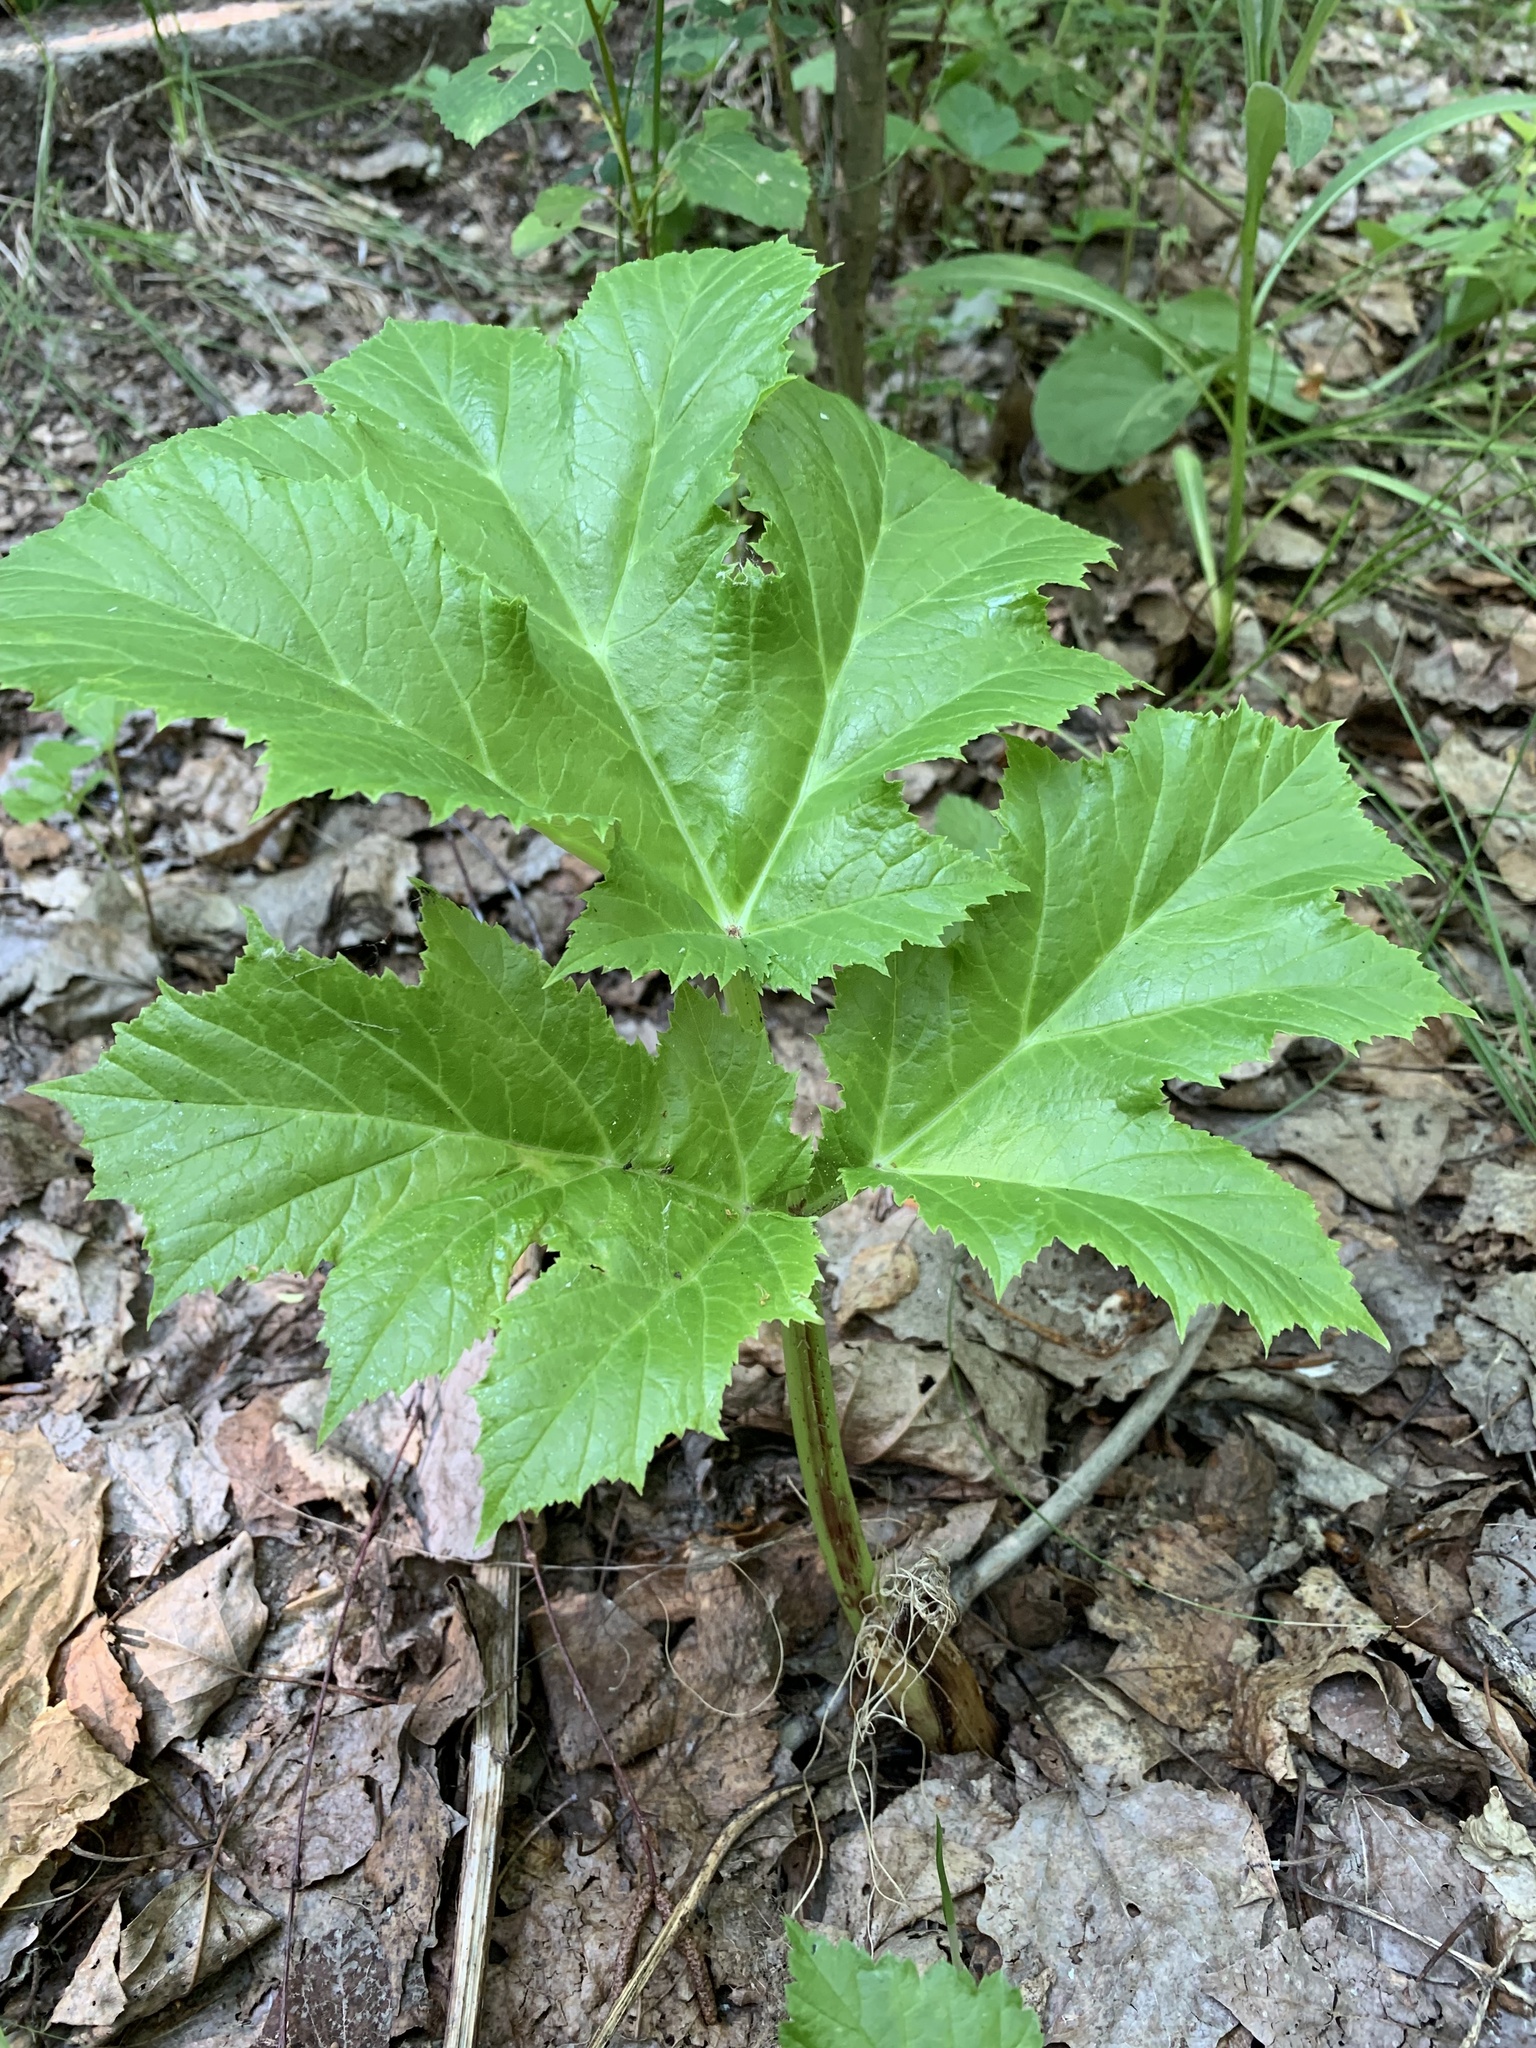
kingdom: Plantae
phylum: Tracheophyta
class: Magnoliopsida
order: Apiales
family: Apiaceae
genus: Heracleum
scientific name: Heracleum sosnowskyi
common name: Sosnowsky's hogweed
